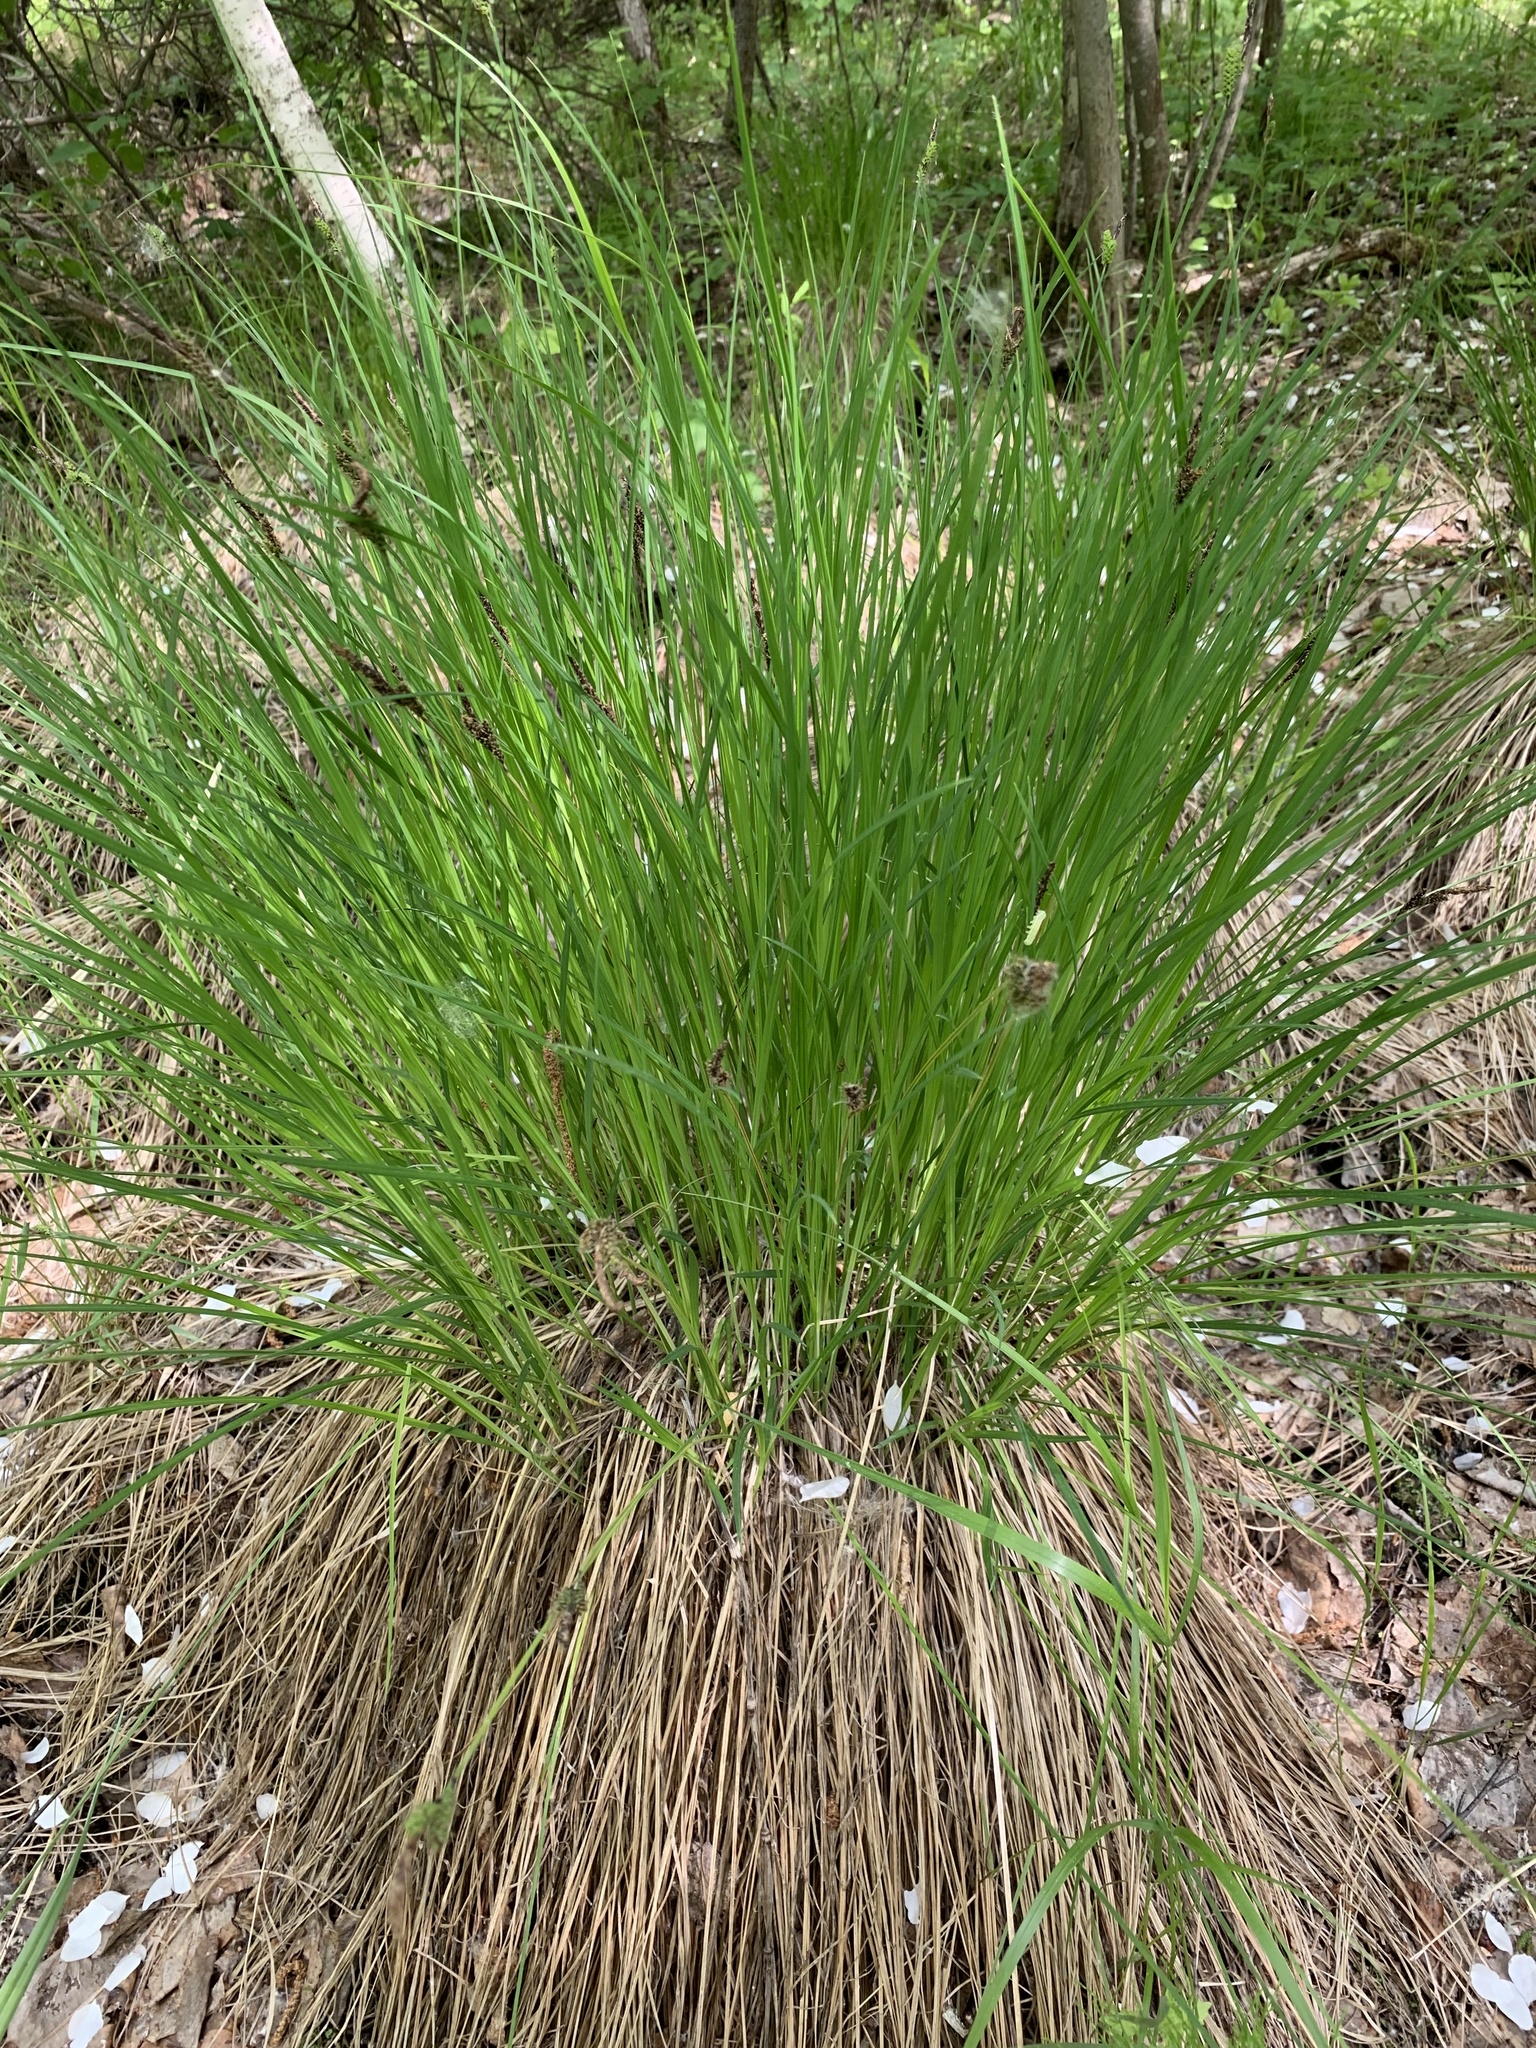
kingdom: Plantae
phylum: Tracheophyta
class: Liliopsida
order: Poales
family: Cyperaceae
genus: Carex
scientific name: Carex cespitosa
